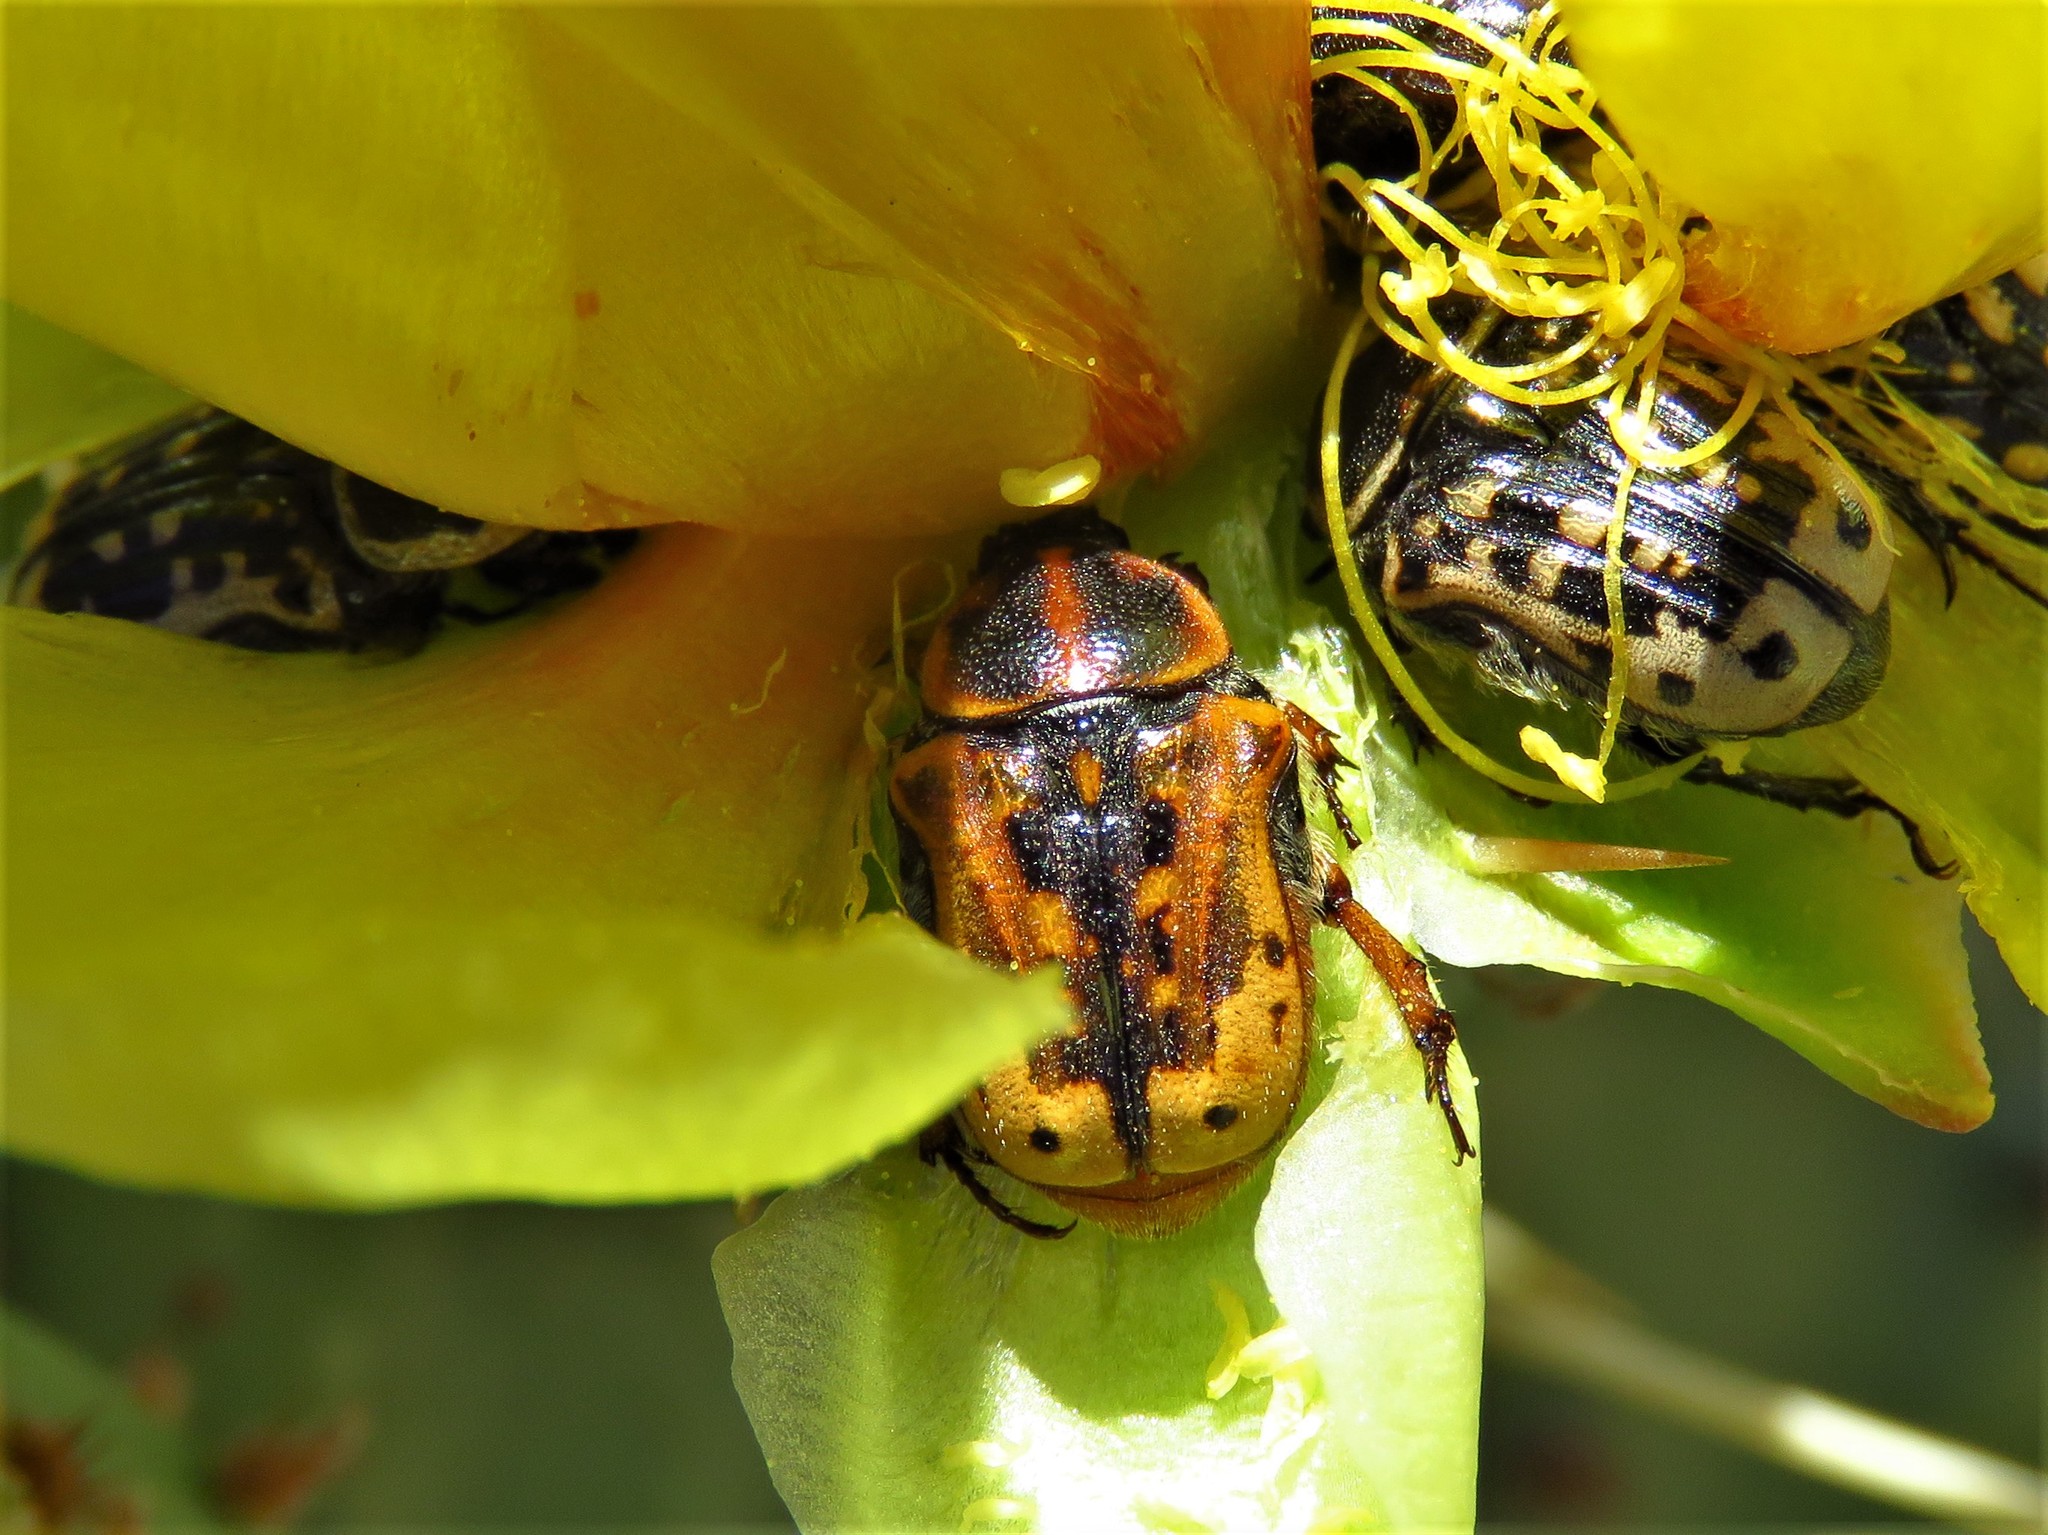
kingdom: Animalia
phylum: Arthropoda
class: Insecta
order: Coleoptera
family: Scarabaeidae
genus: Euphoria
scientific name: Euphoria kernii
